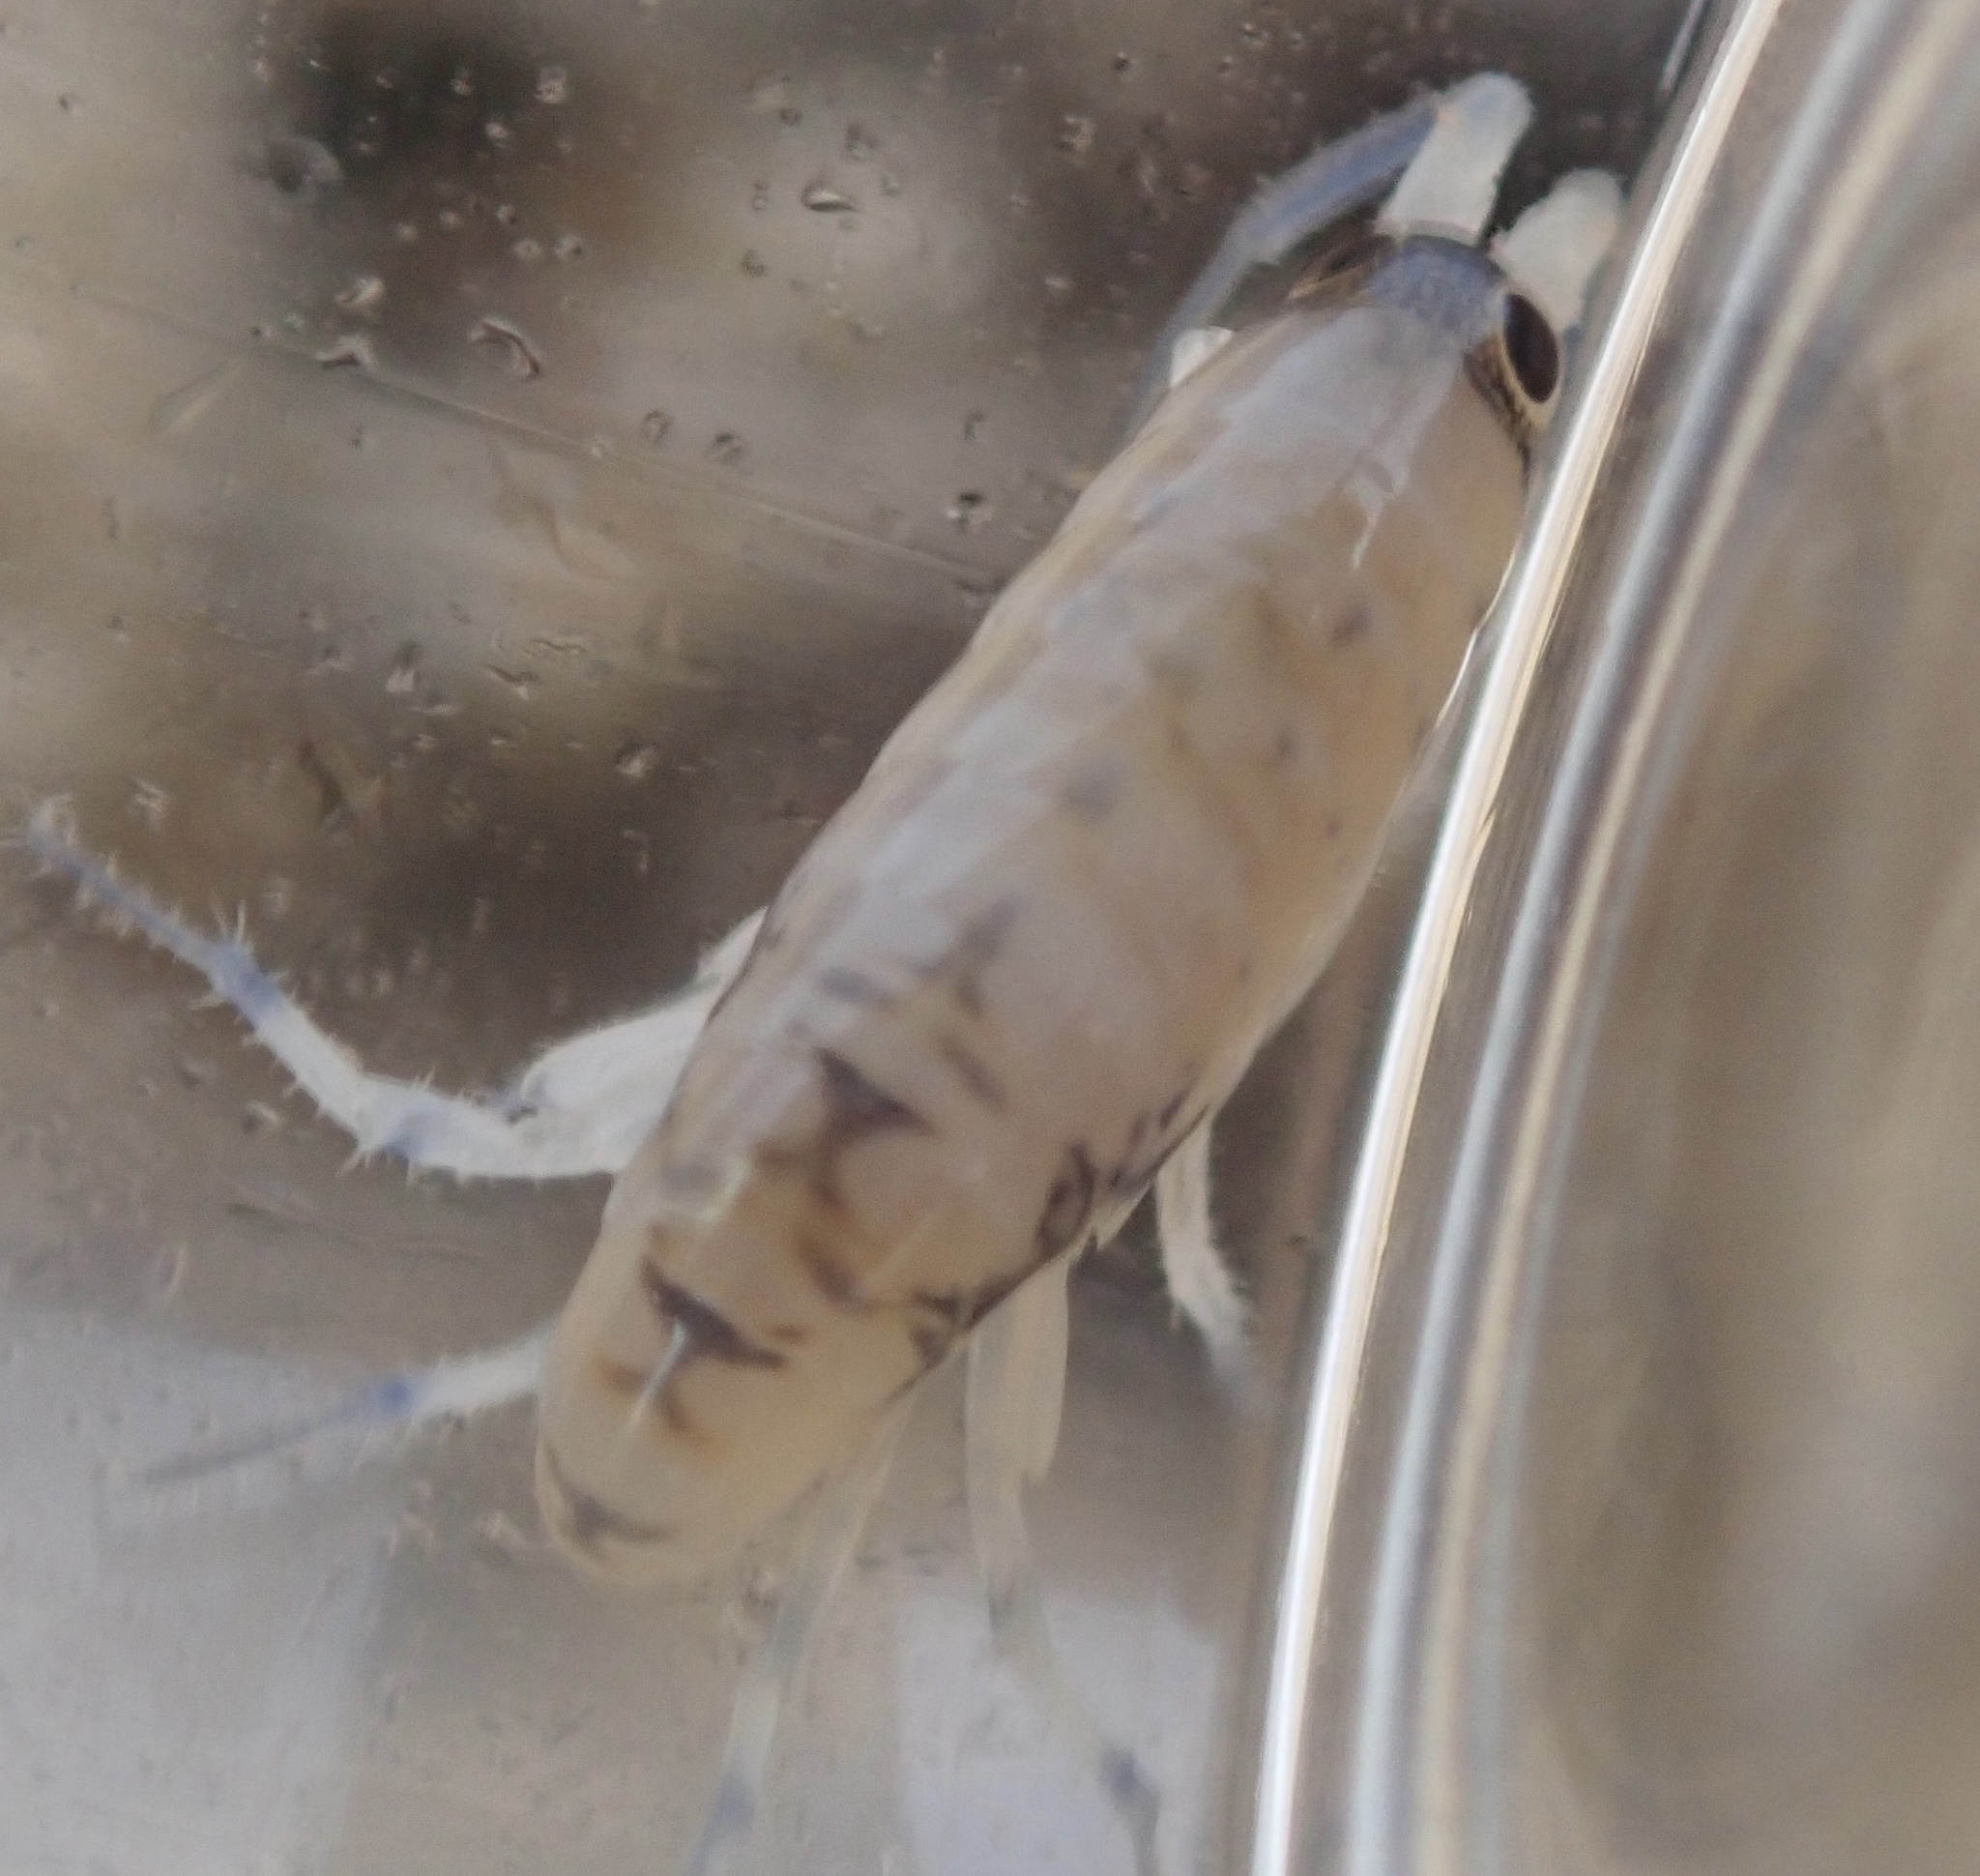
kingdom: Animalia
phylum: Arthropoda
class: Malacostraca
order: Amphipoda
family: Talitridae
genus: Megalorchestia
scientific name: Megalorchestia corniculata
